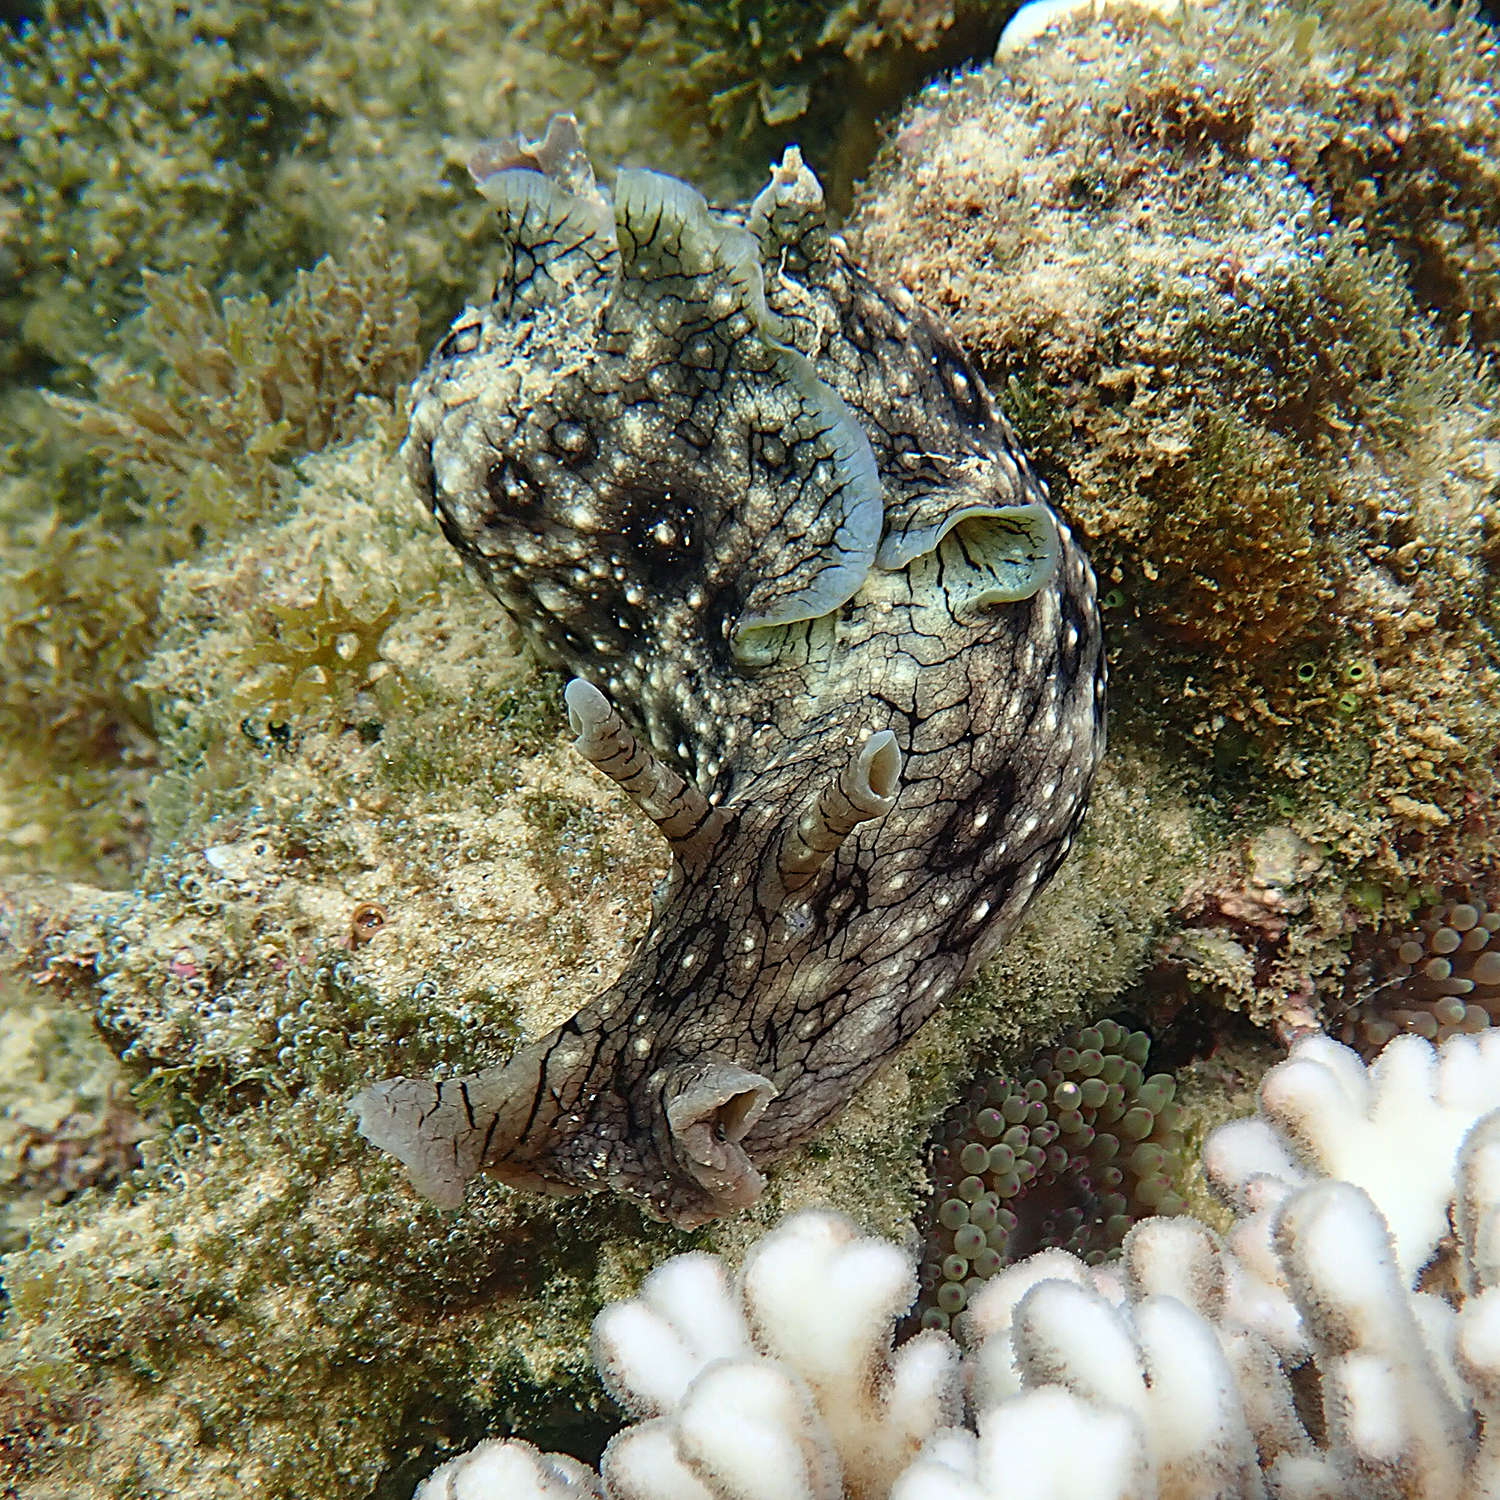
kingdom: Animalia
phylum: Mollusca
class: Gastropoda
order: Aplysiida
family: Aplysiidae
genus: Aplysia
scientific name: Aplysia argus
